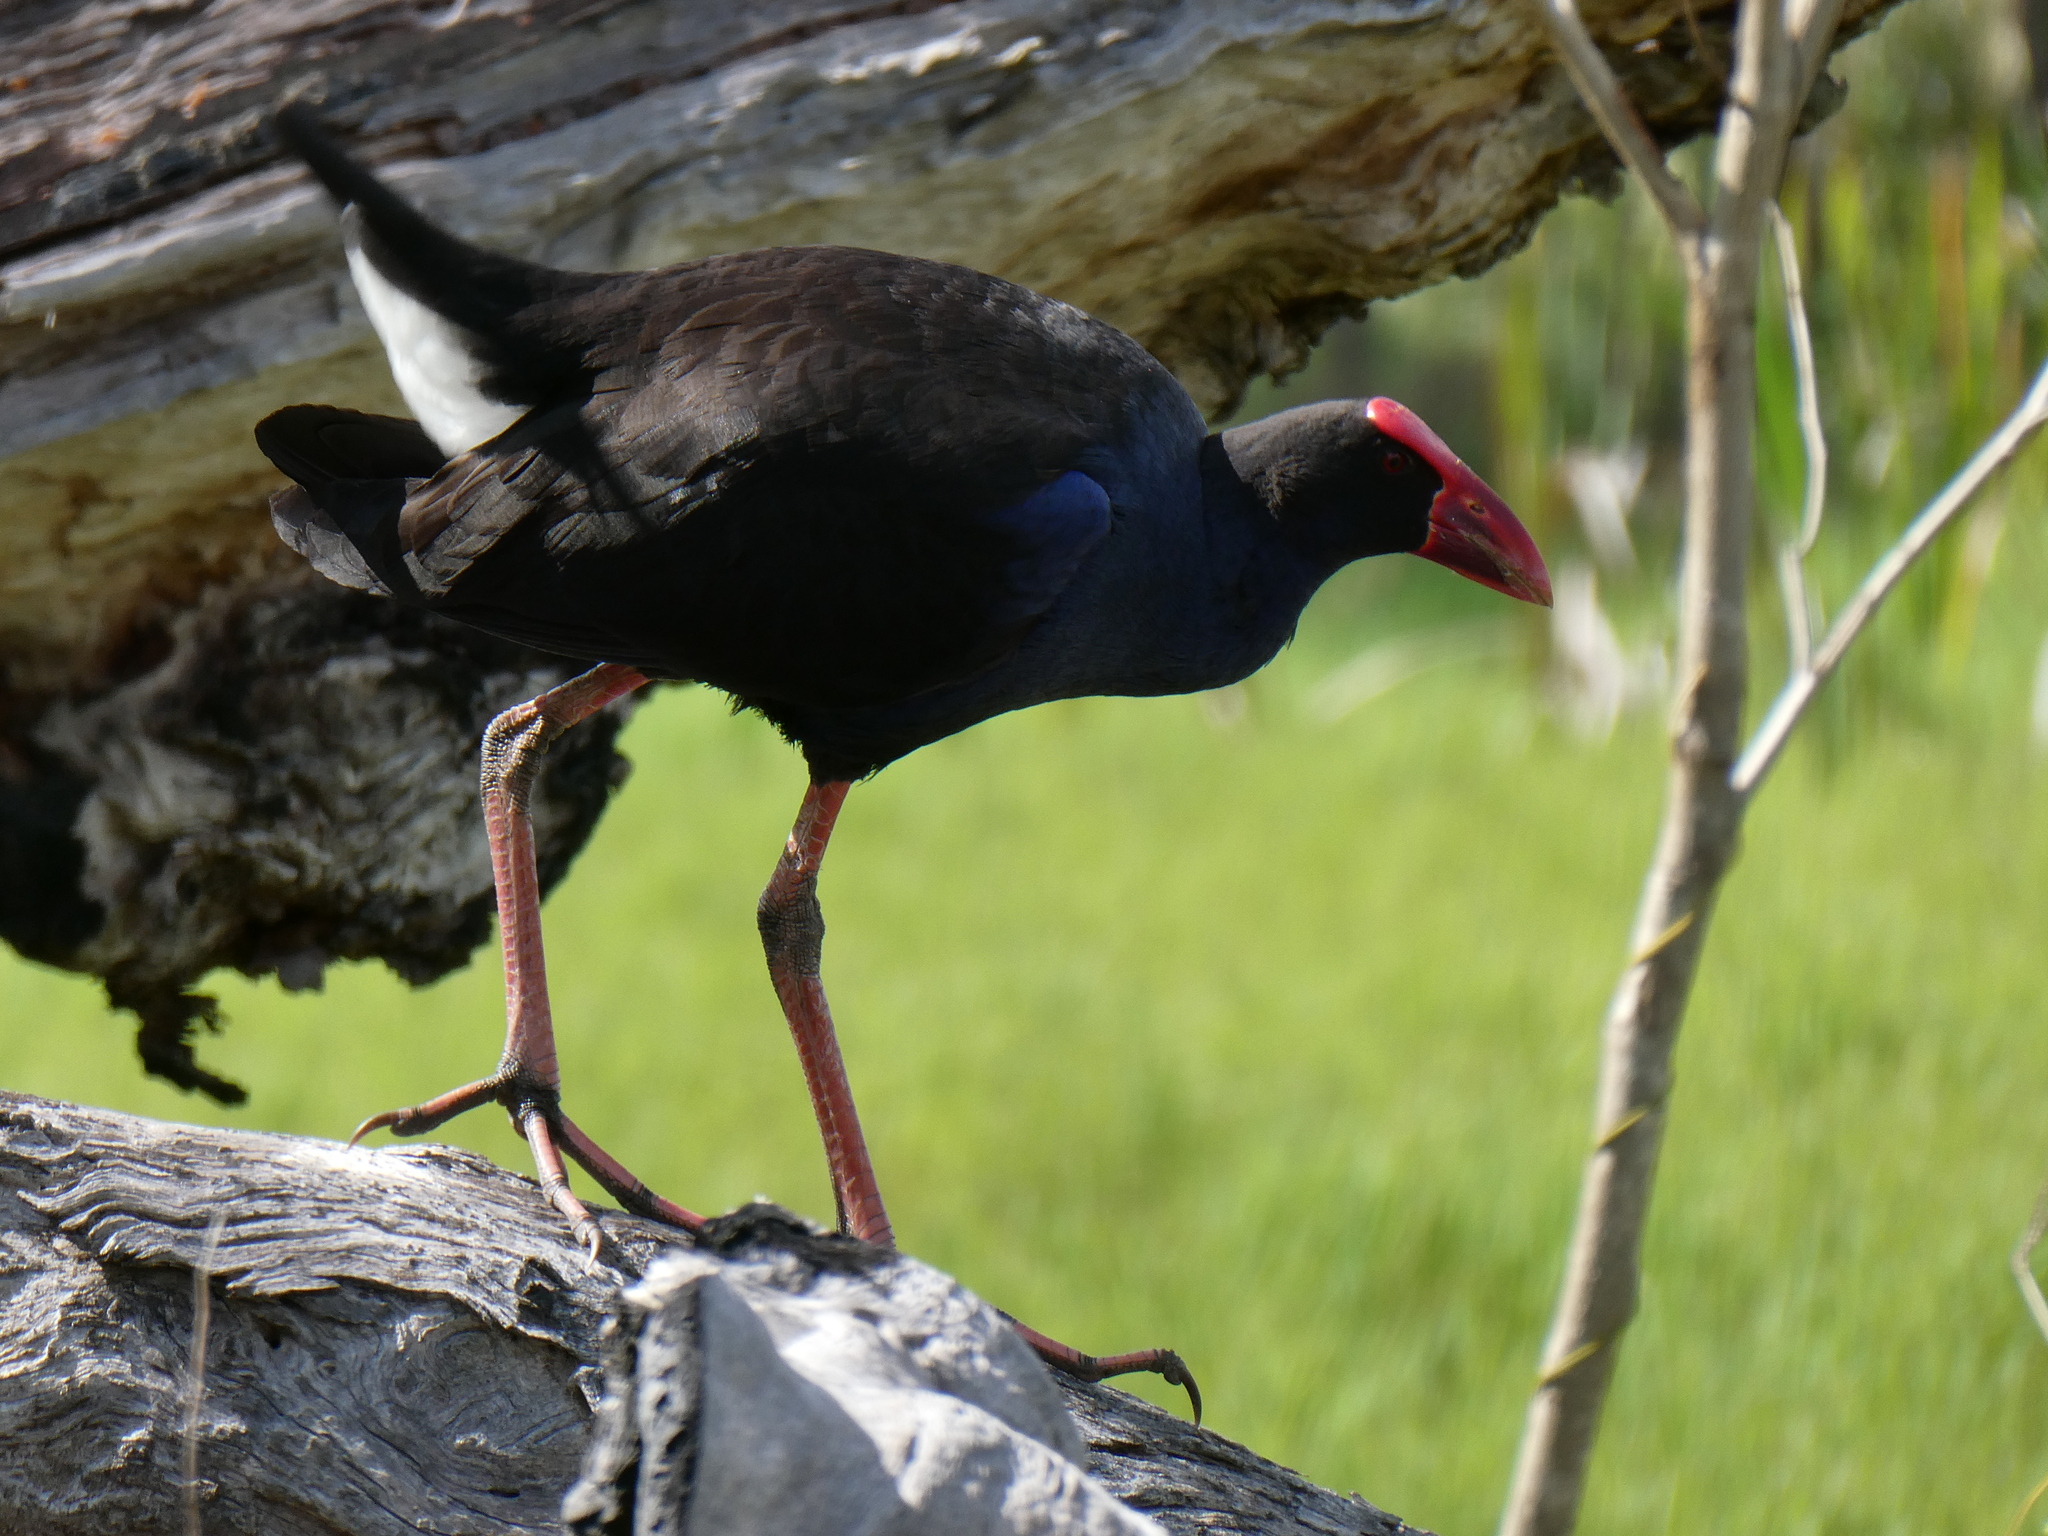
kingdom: Animalia
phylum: Chordata
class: Aves
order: Gruiformes
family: Rallidae
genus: Porphyrio
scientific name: Porphyrio melanotus
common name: Australasian swamphen
